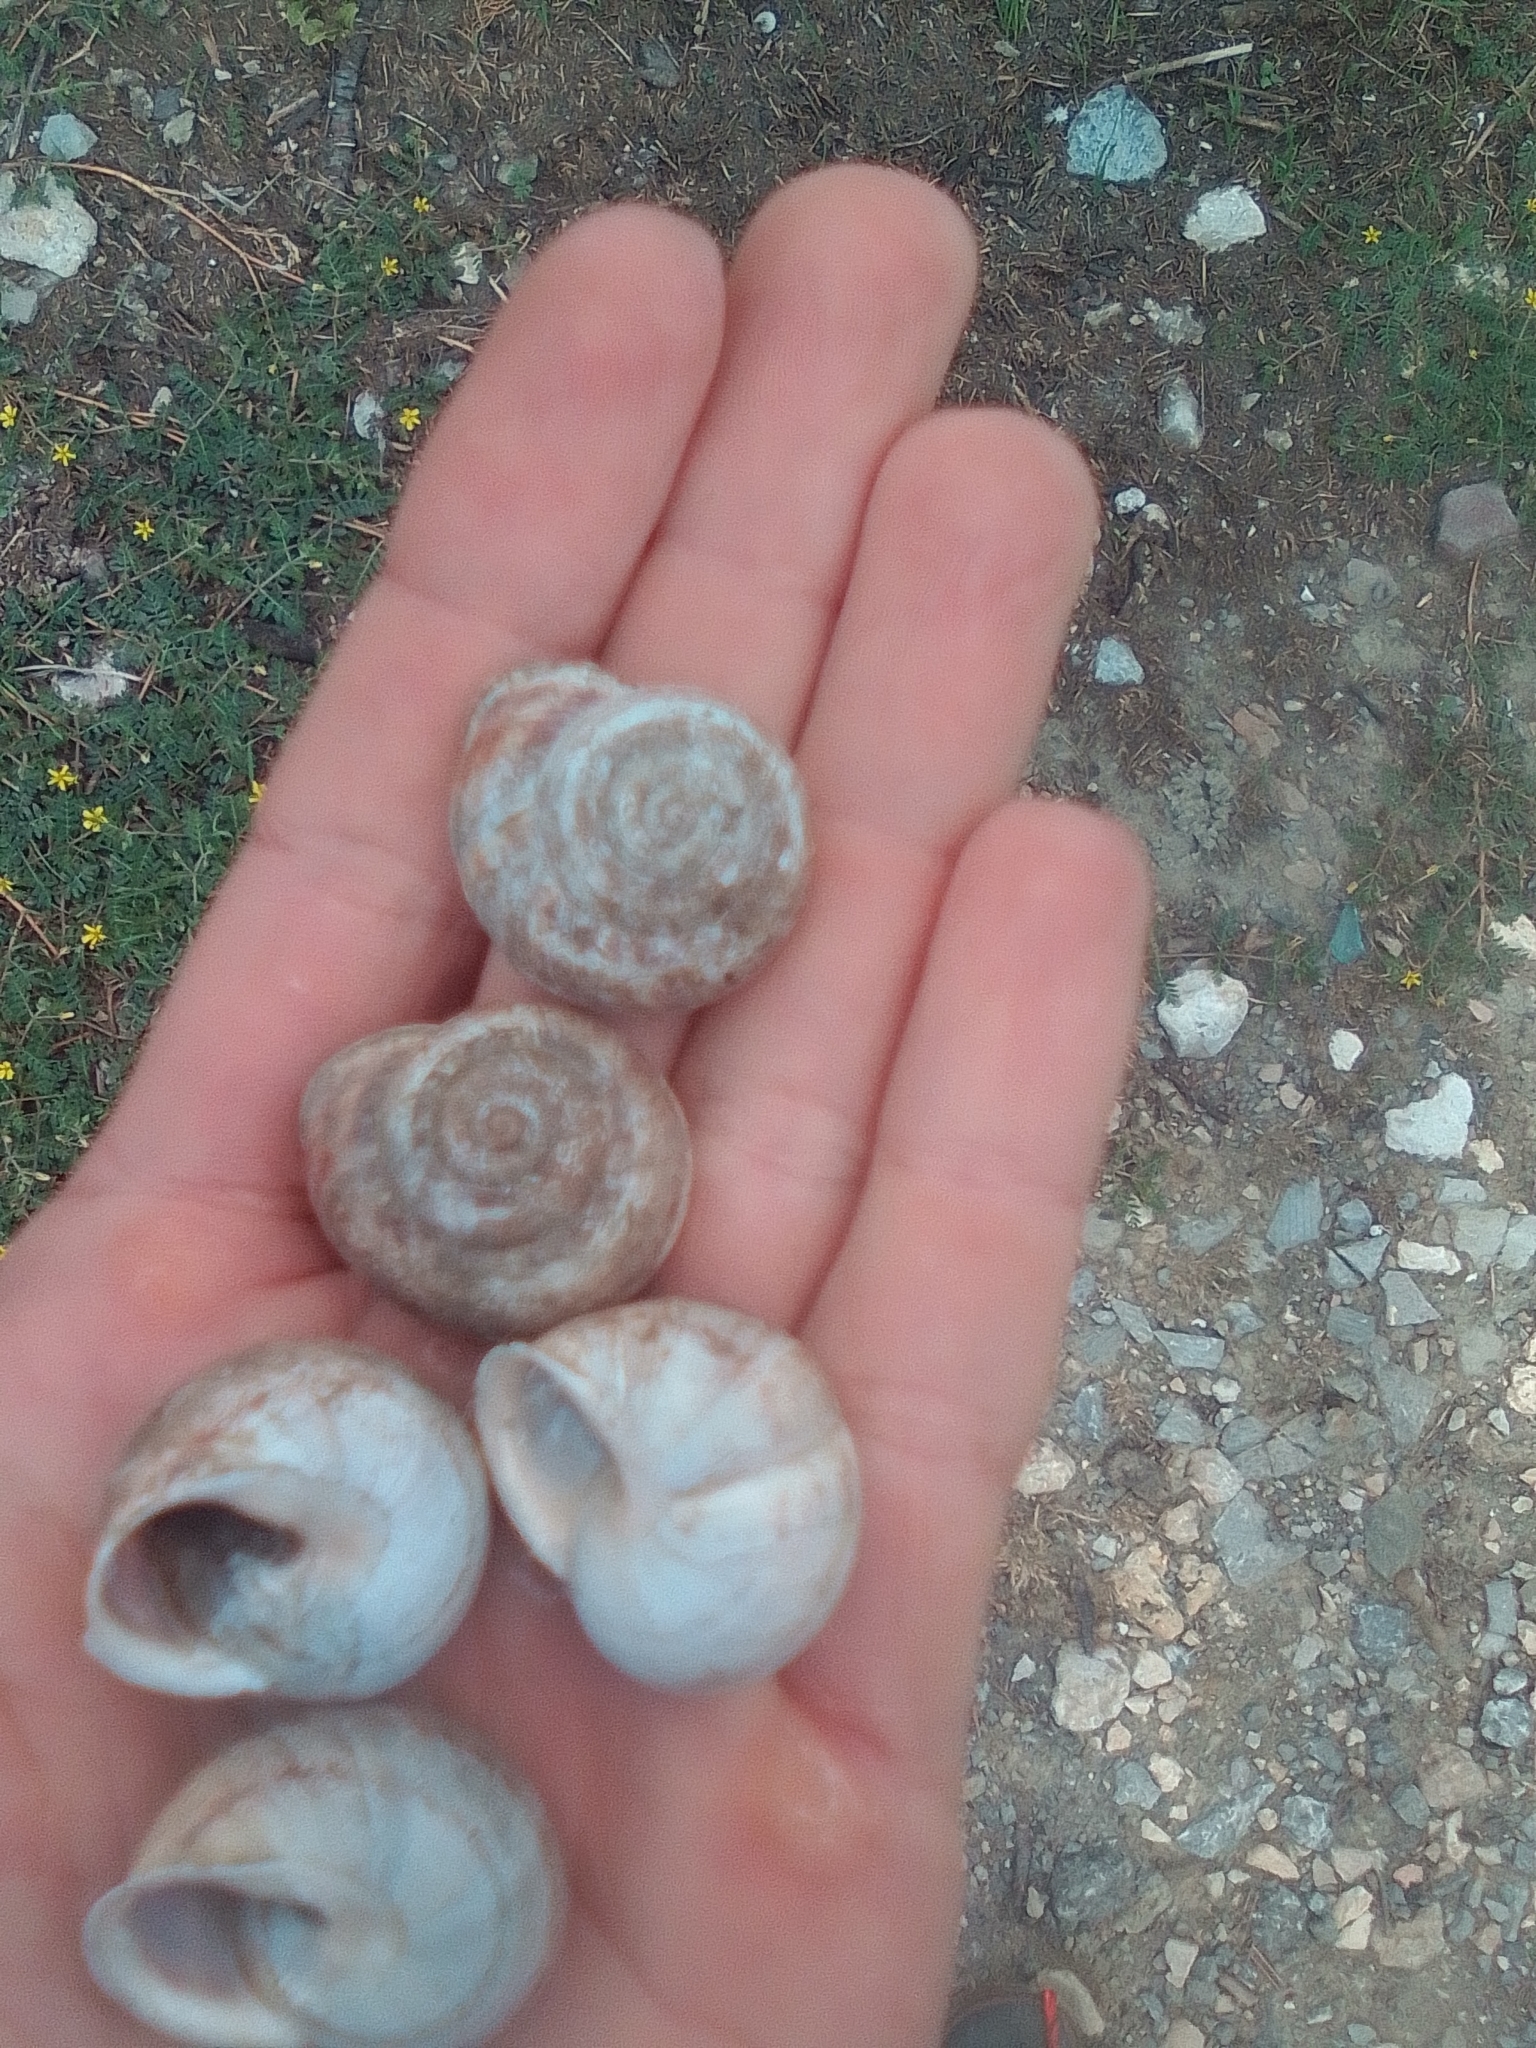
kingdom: Animalia
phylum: Mollusca
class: Gastropoda
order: Stylommatophora
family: Helicidae
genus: Eobania
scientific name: Eobania vermiculata
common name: Chocolateband snail
